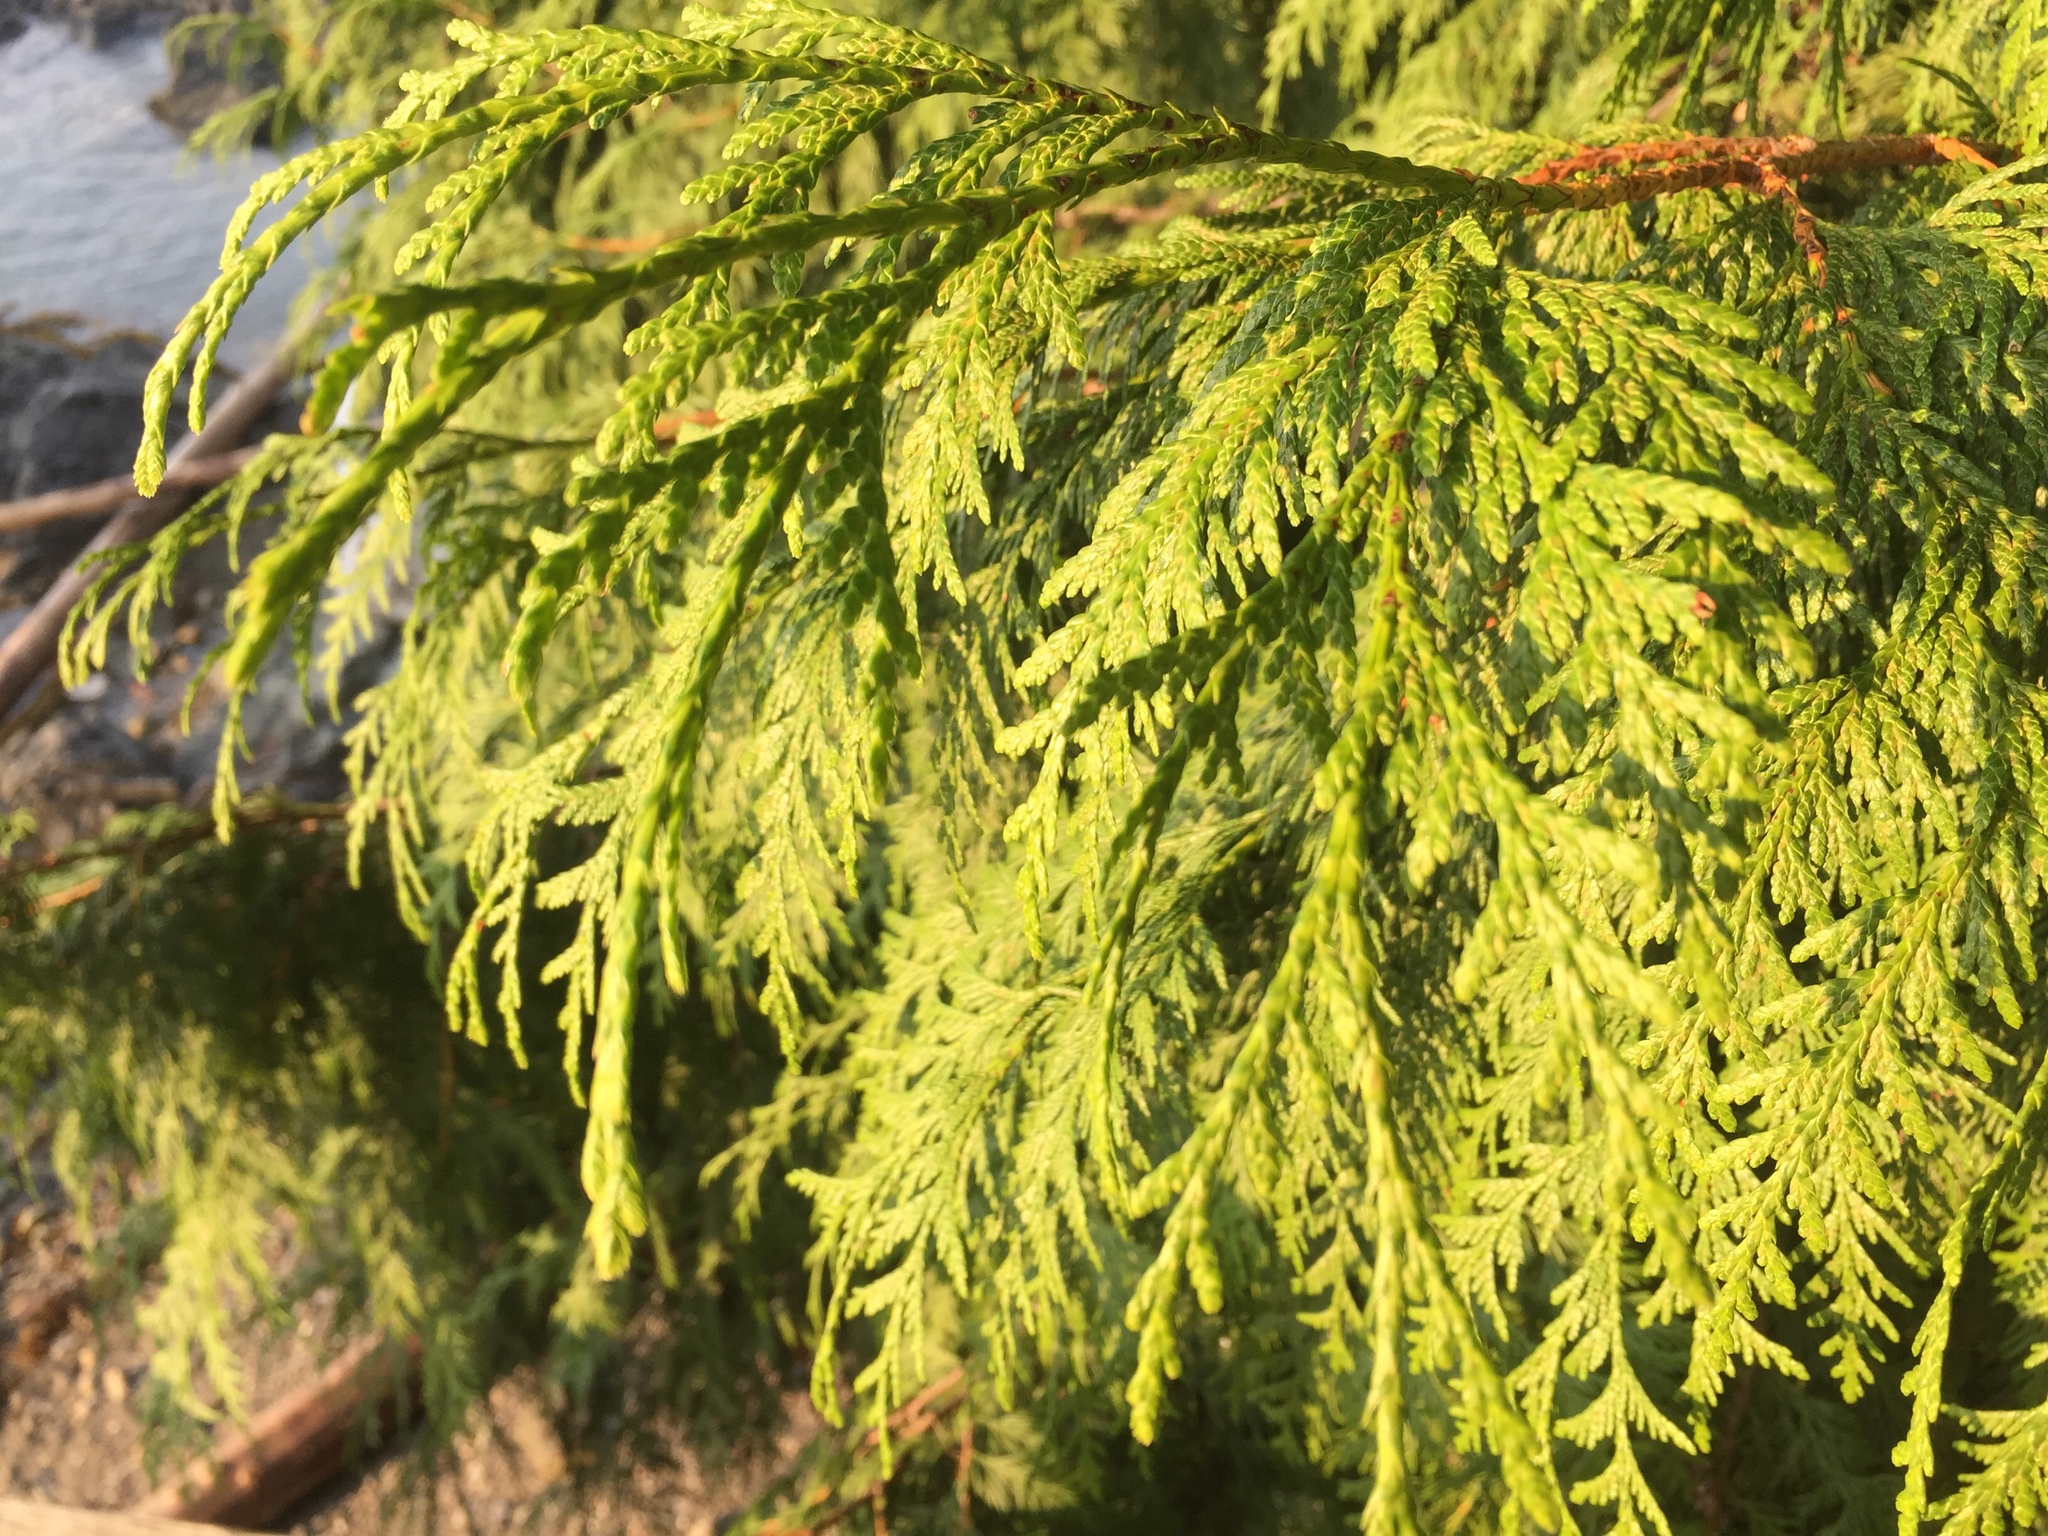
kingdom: Plantae
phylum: Tracheophyta
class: Pinopsida
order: Pinales
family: Cupressaceae
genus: Thuja
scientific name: Thuja plicata
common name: Western red-cedar
